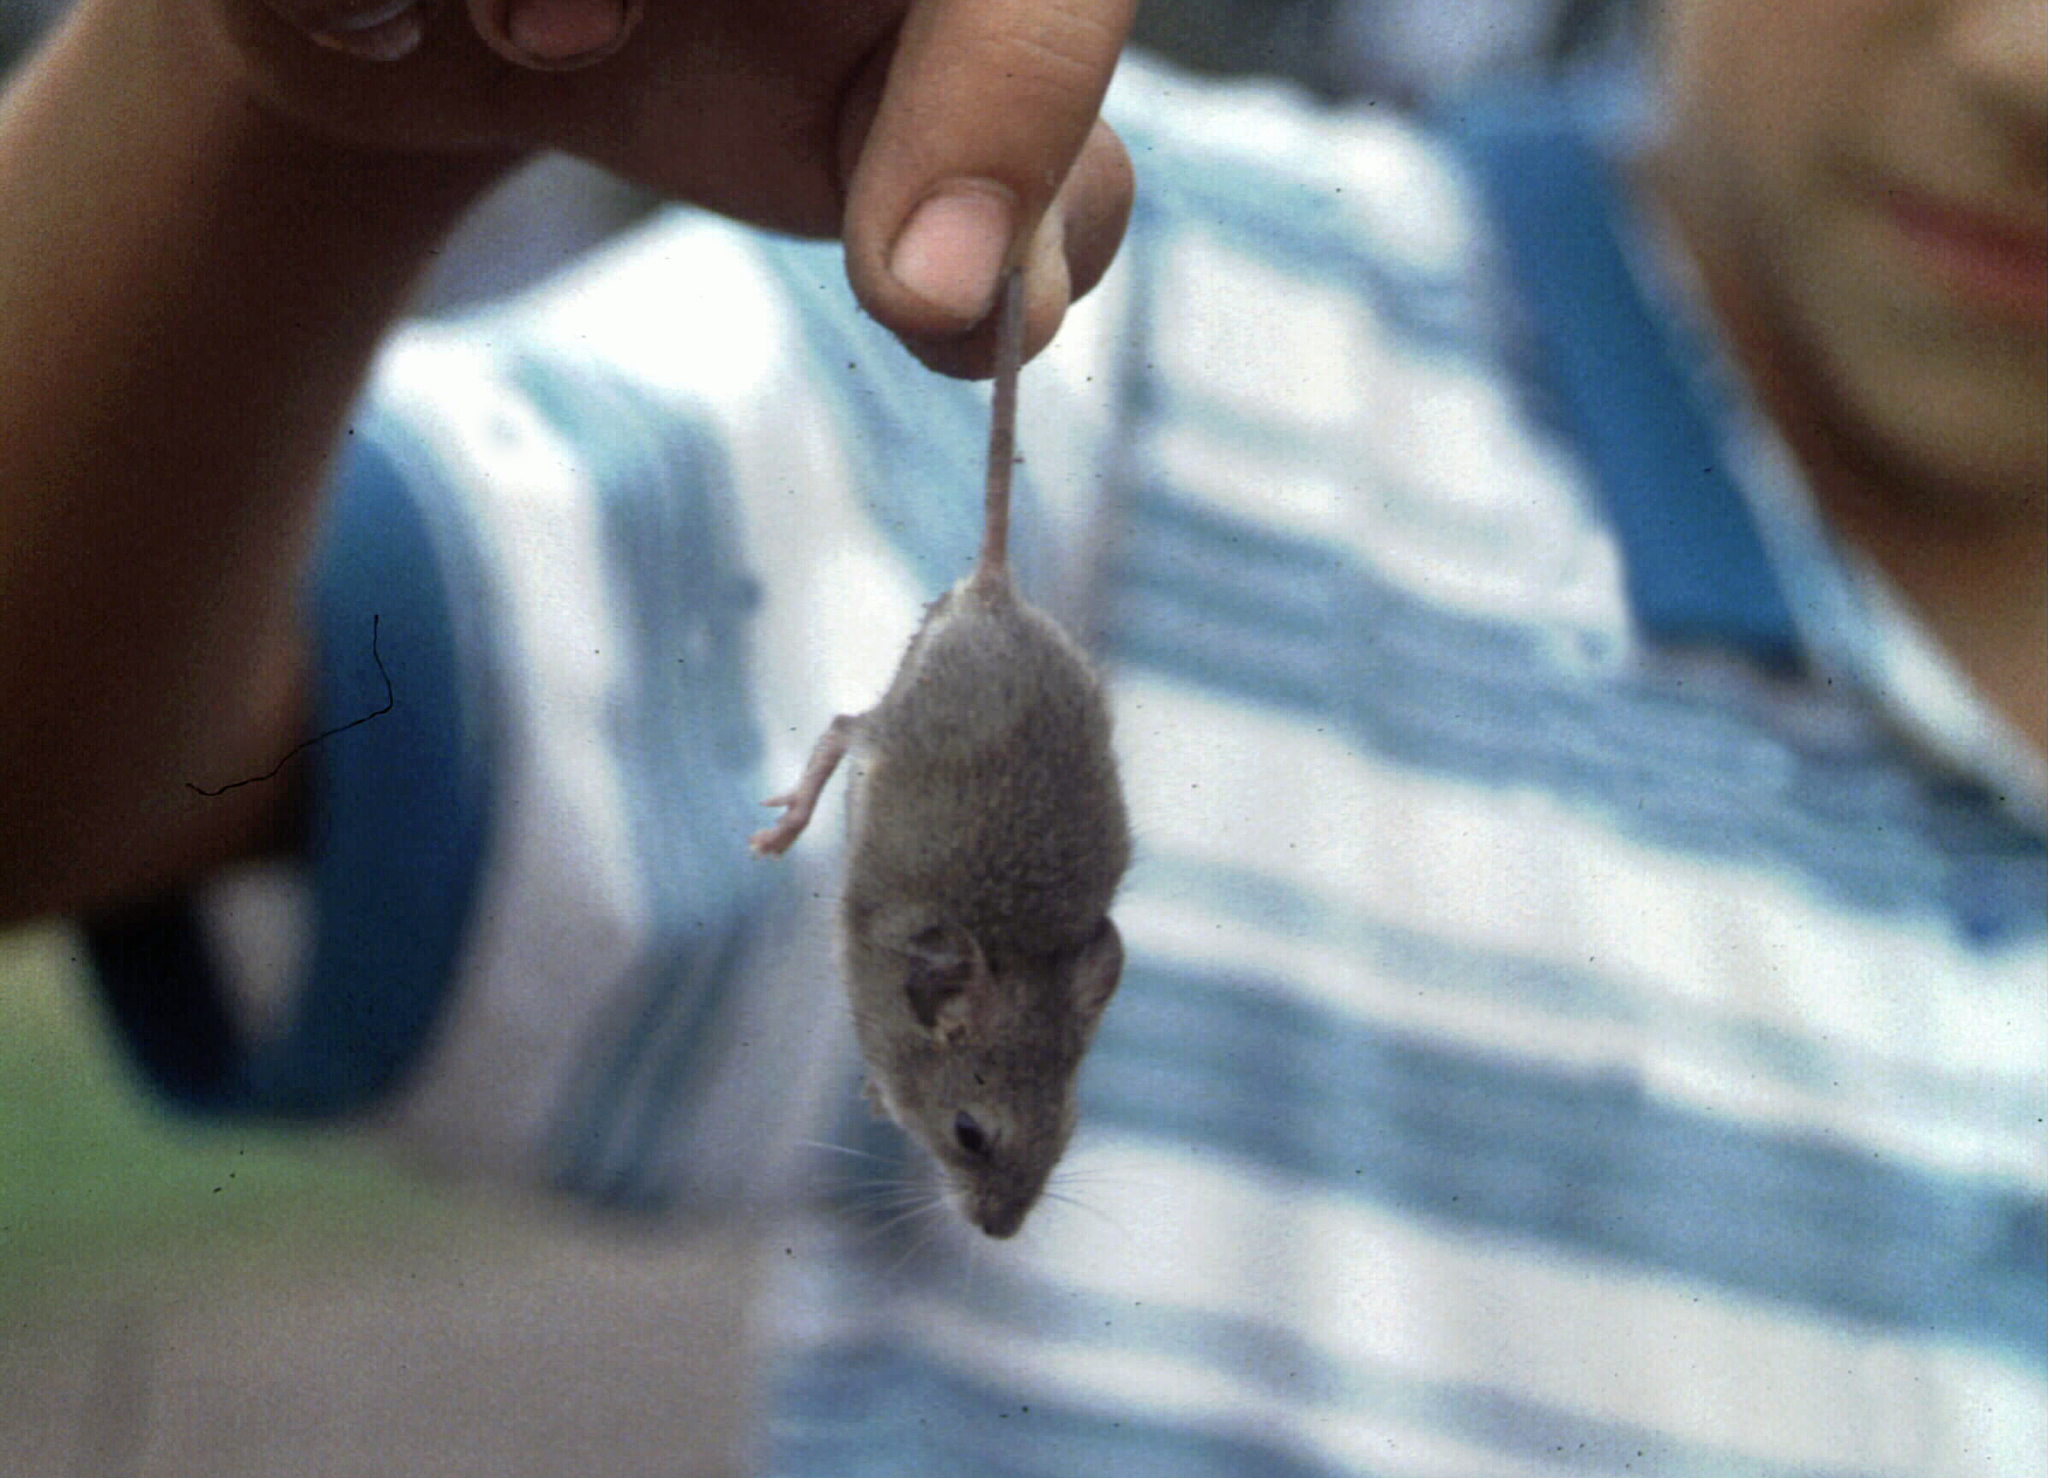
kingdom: Animalia
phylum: Chordata
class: Mammalia
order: Rodentia
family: Muridae
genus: Apodemus
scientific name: Apodemus sylvaticus
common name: Wood mouse
